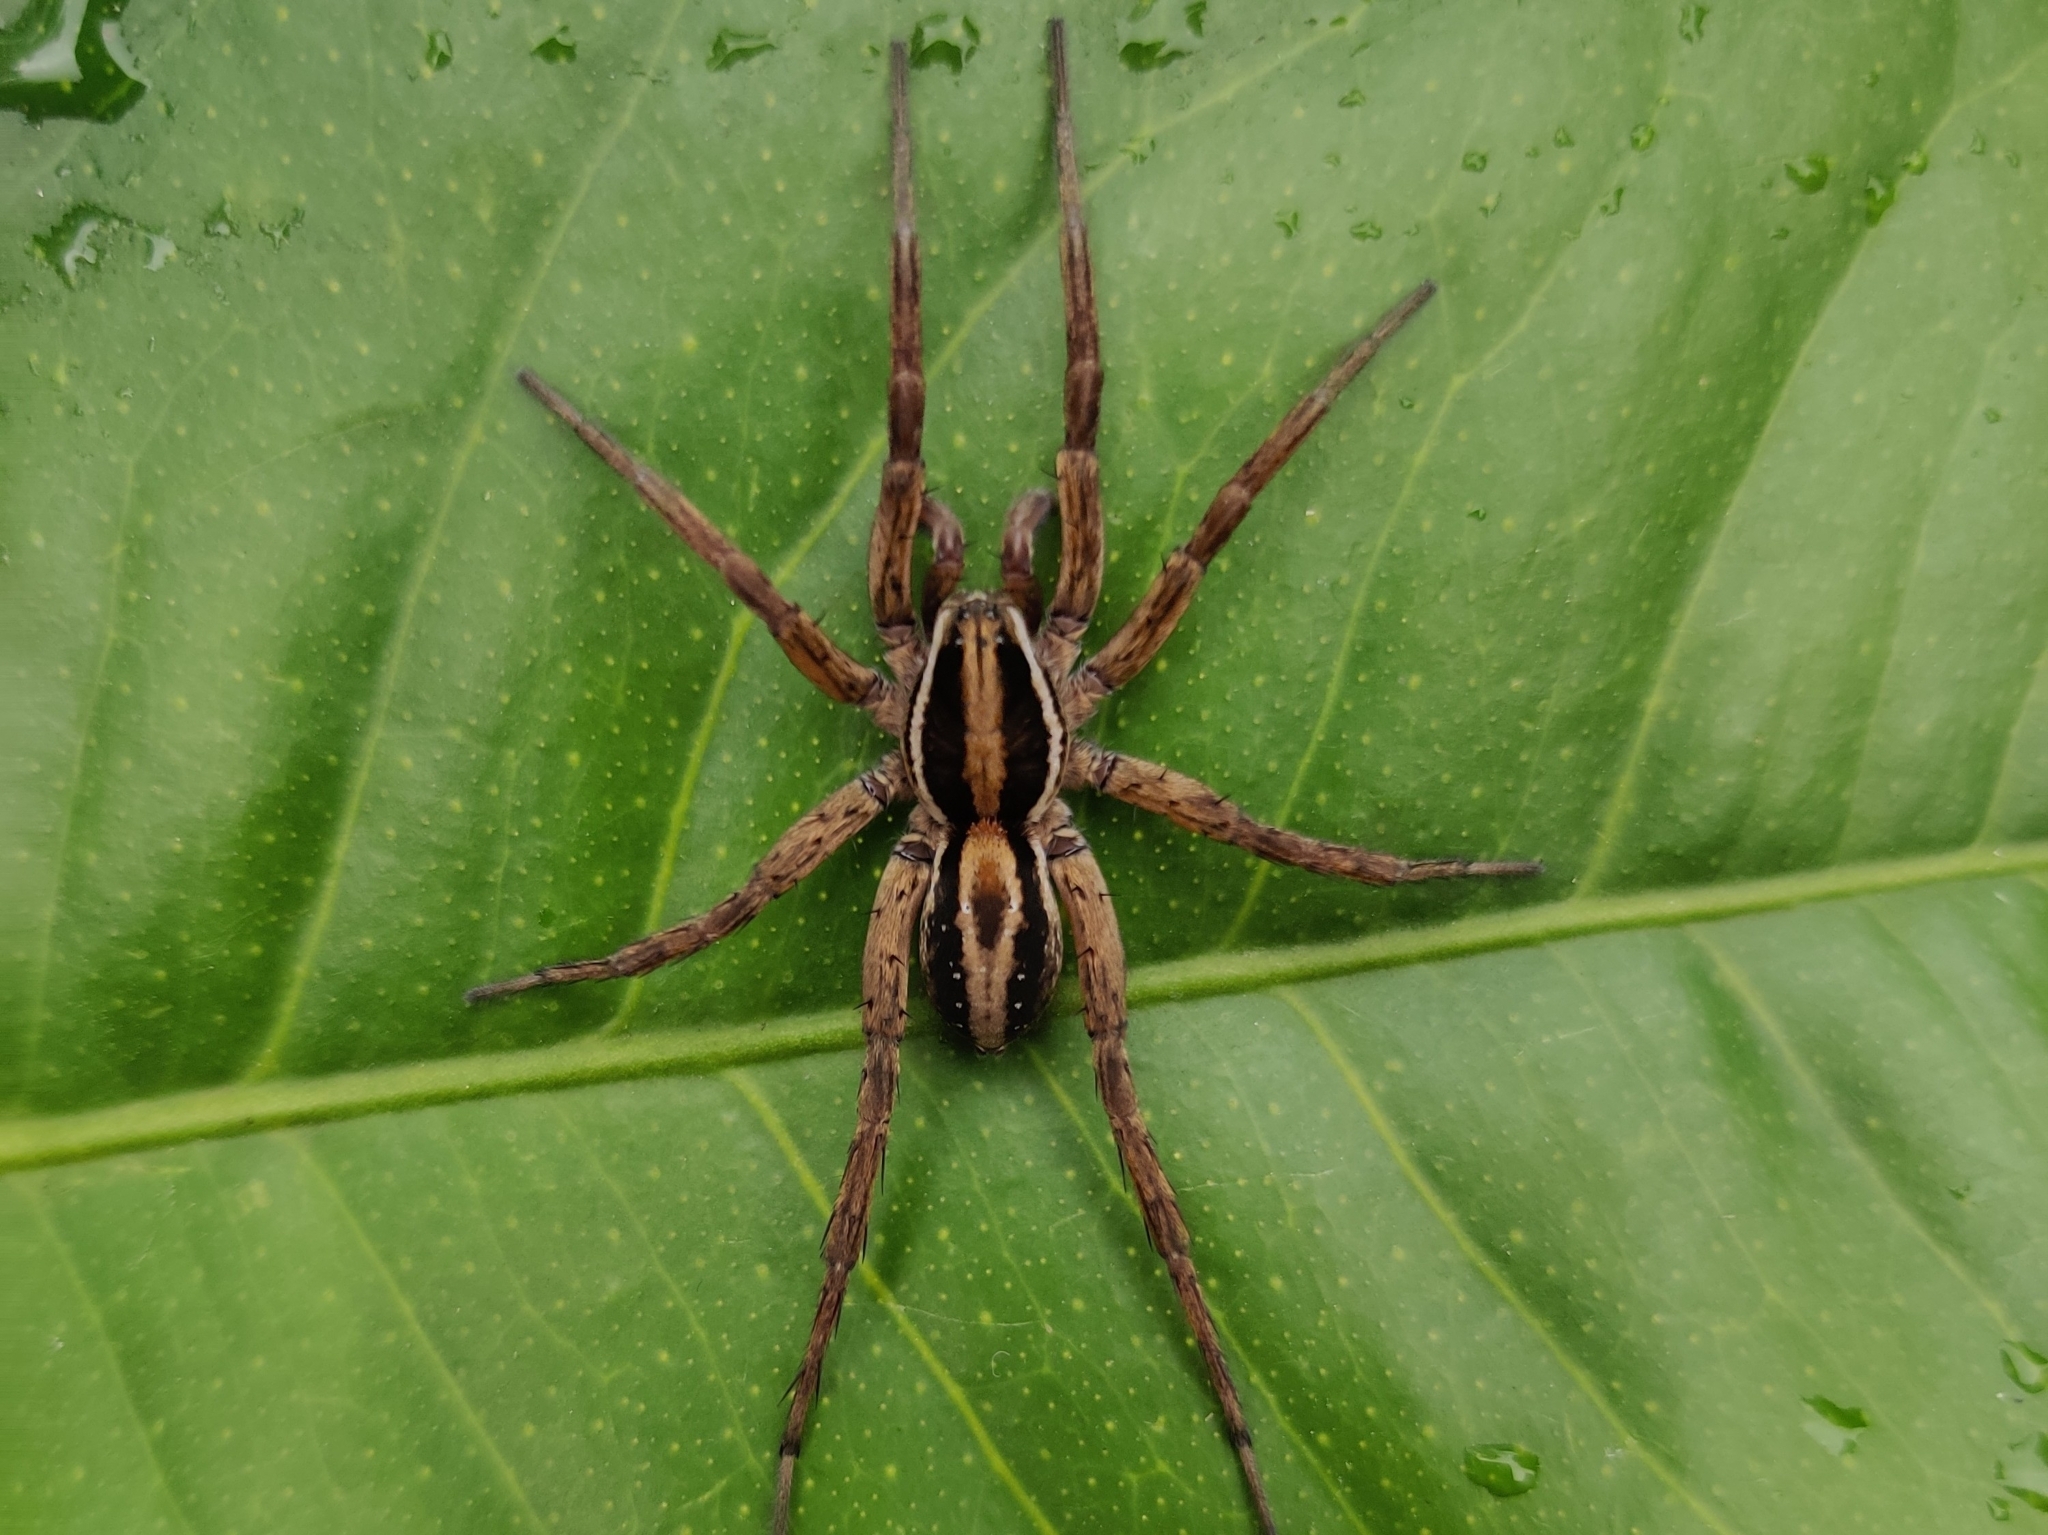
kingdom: Animalia
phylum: Arthropoda
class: Arachnida
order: Araneae
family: Lycosidae
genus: Venatrix
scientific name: Venatrix furcillata
